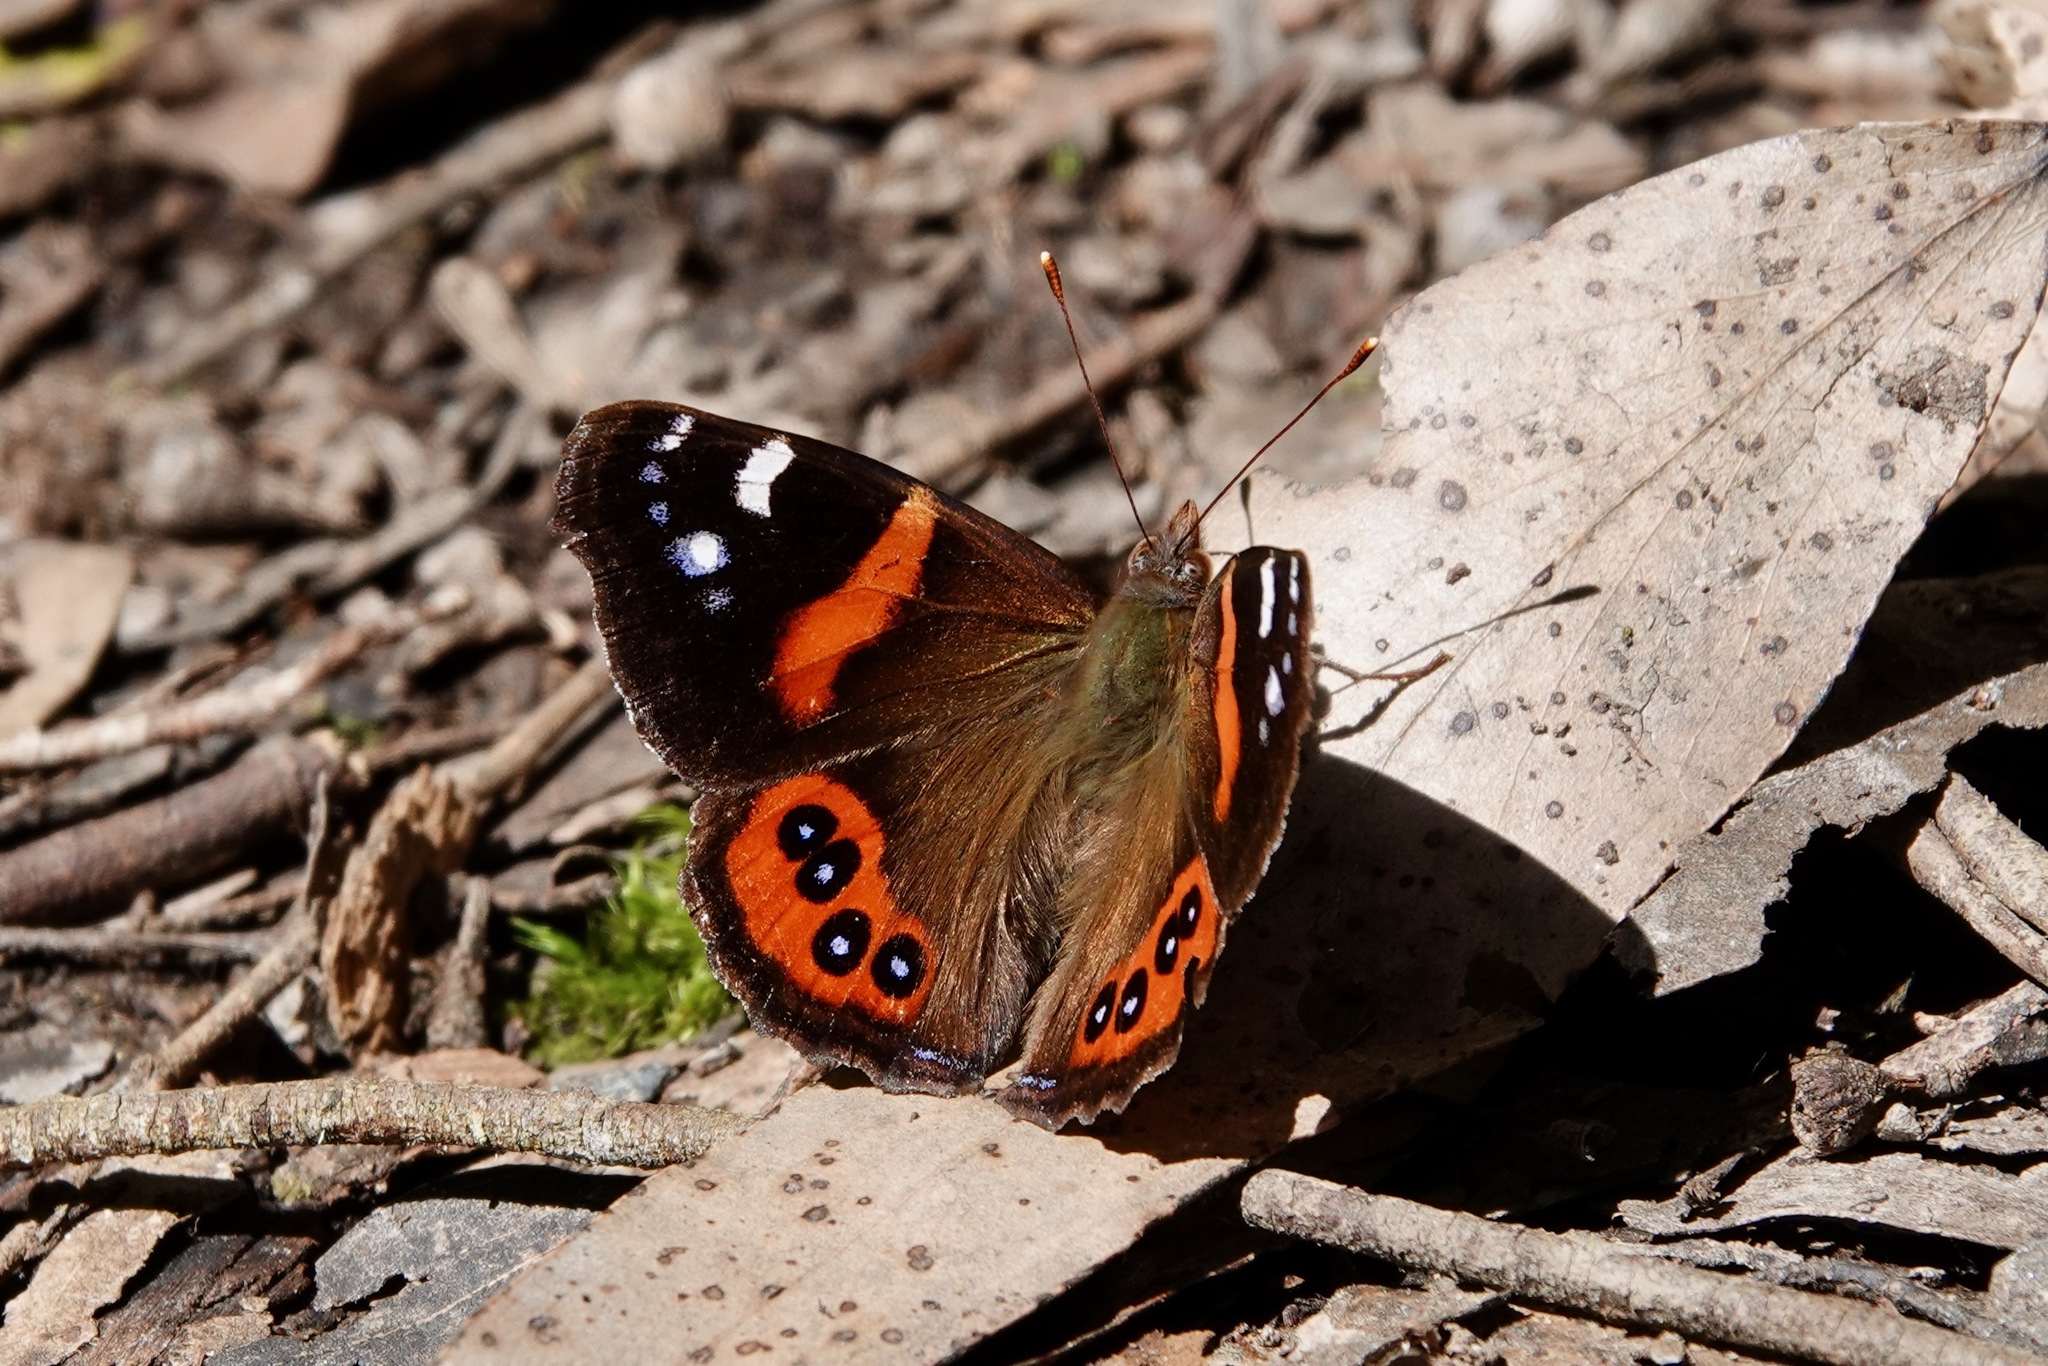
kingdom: Animalia
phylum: Arthropoda
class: Insecta
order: Lepidoptera
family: Nymphalidae
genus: Vanessa
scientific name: Vanessa gonerilla
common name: New zealand red admiral
